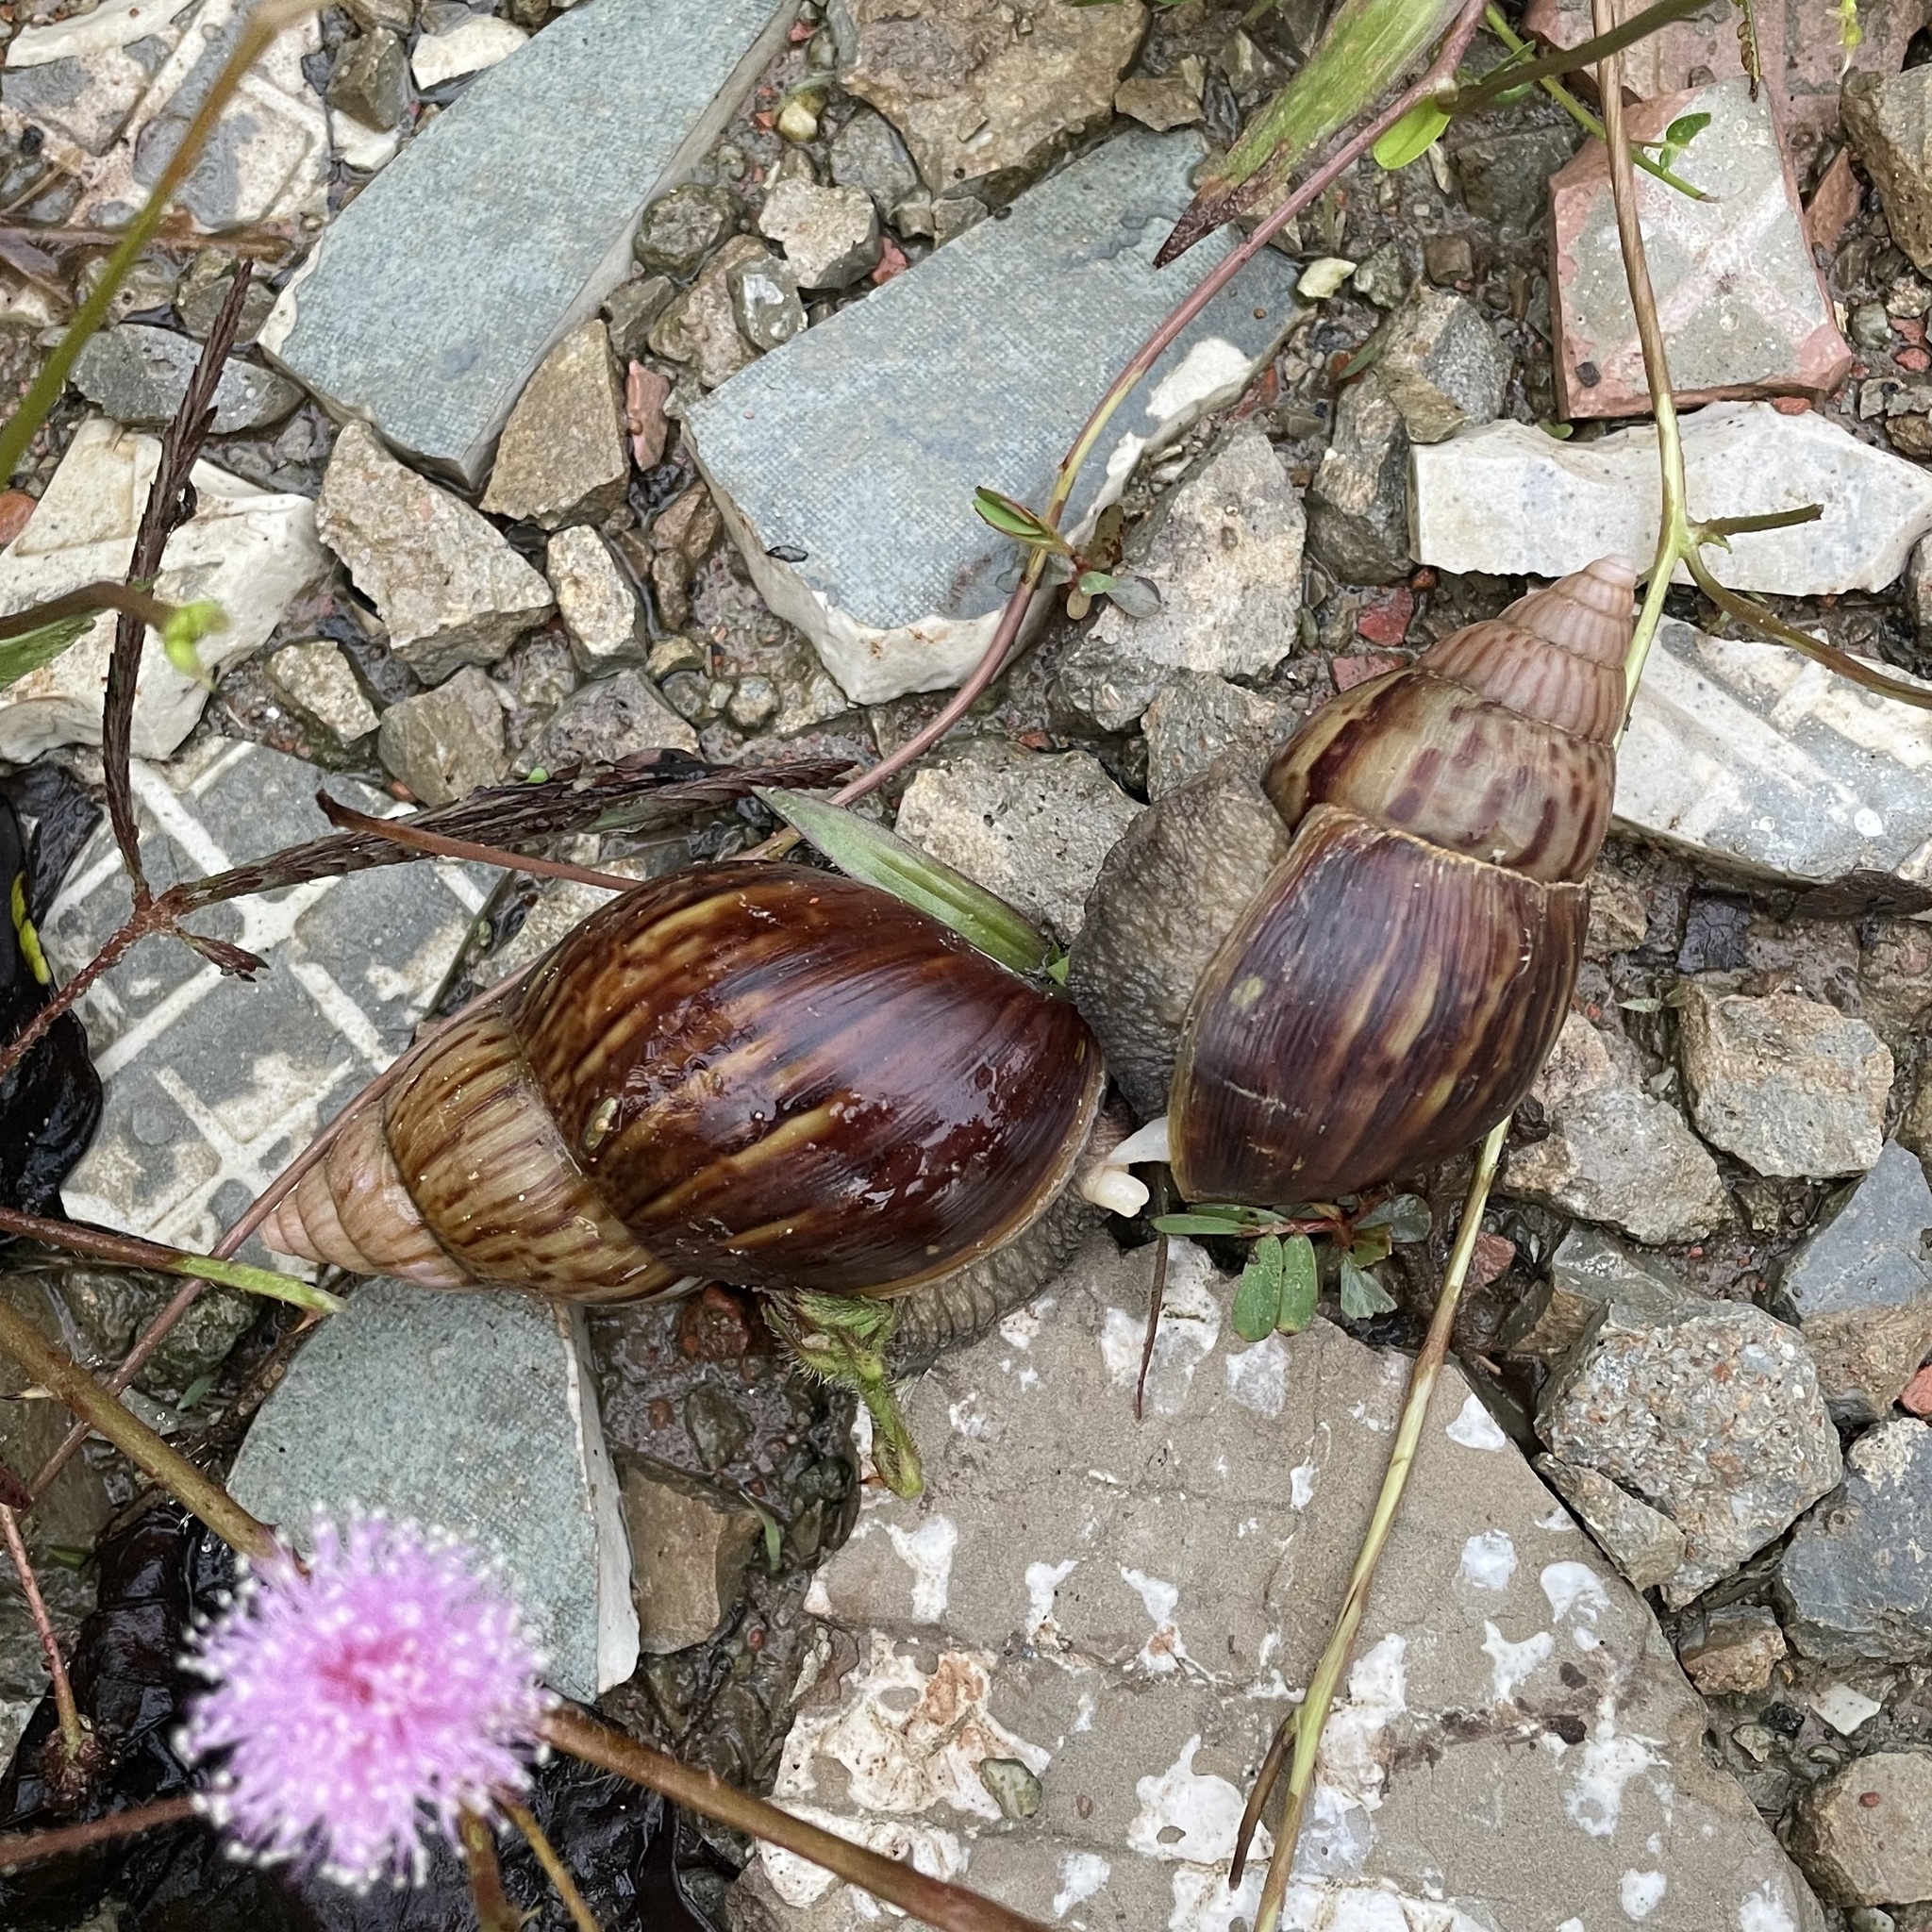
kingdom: Animalia
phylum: Mollusca
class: Gastropoda
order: Stylommatophora
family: Achatinidae
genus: Lissachatina
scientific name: Lissachatina fulica
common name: Giant african snail
